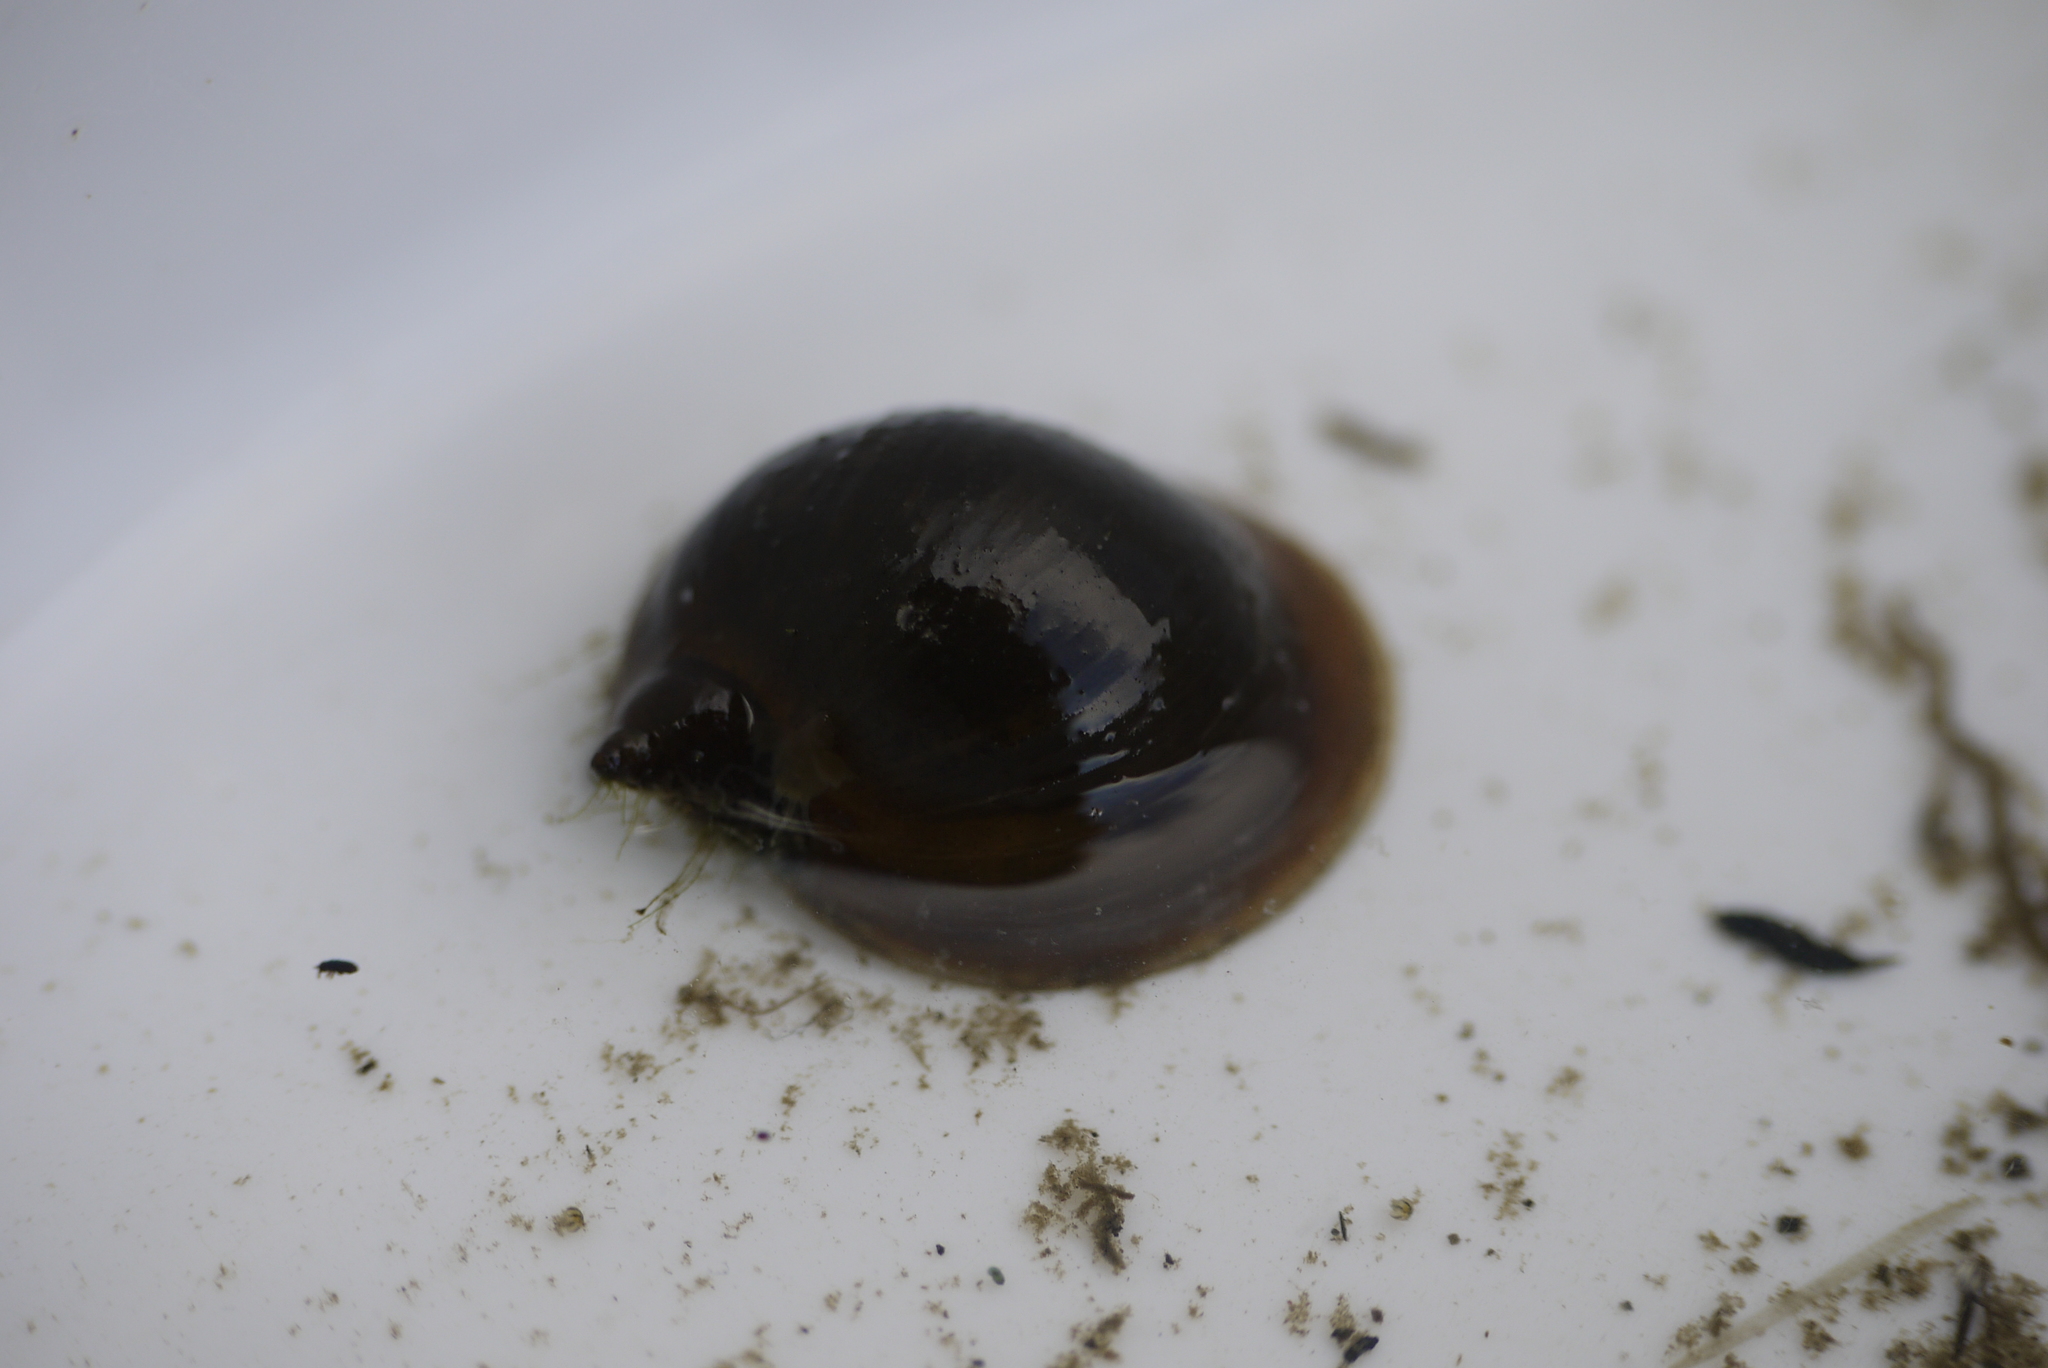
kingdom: Animalia
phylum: Mollusca
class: Gastropoda
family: Lymnaeidae
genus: Radix
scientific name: Radix auricularia
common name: Ear pond snail
